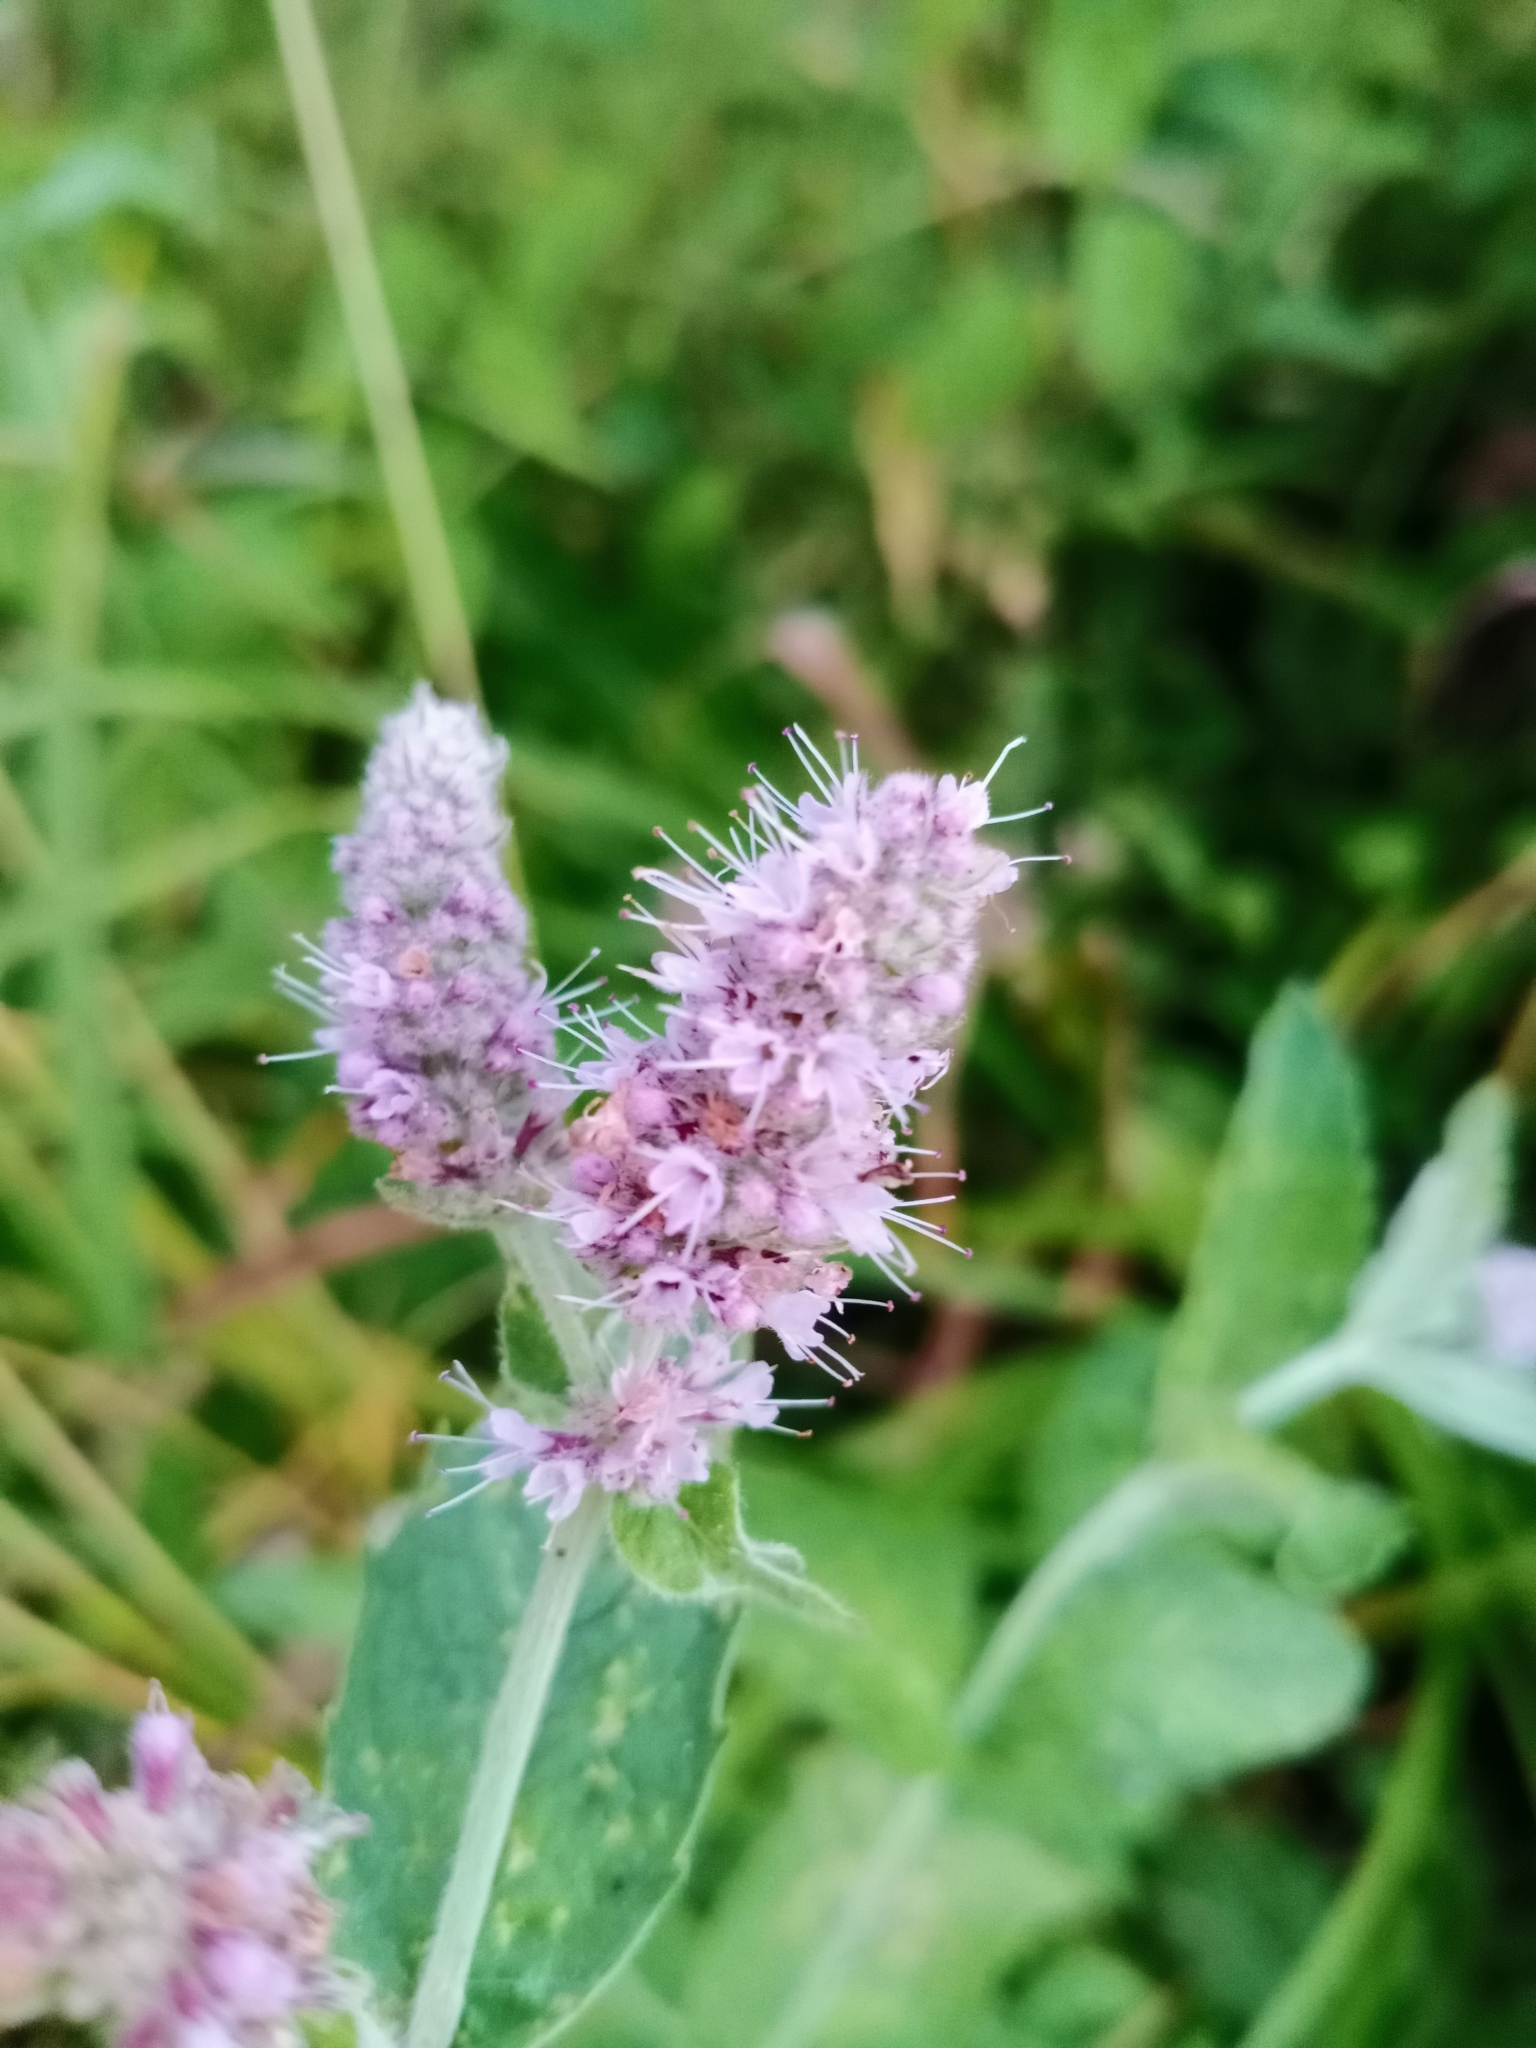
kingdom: Plantae
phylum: Tracheophyta
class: Magnoliopsida
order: Lamiales
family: Lamiaceae
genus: Mentha
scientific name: Mentha longifolia
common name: Horse mint
